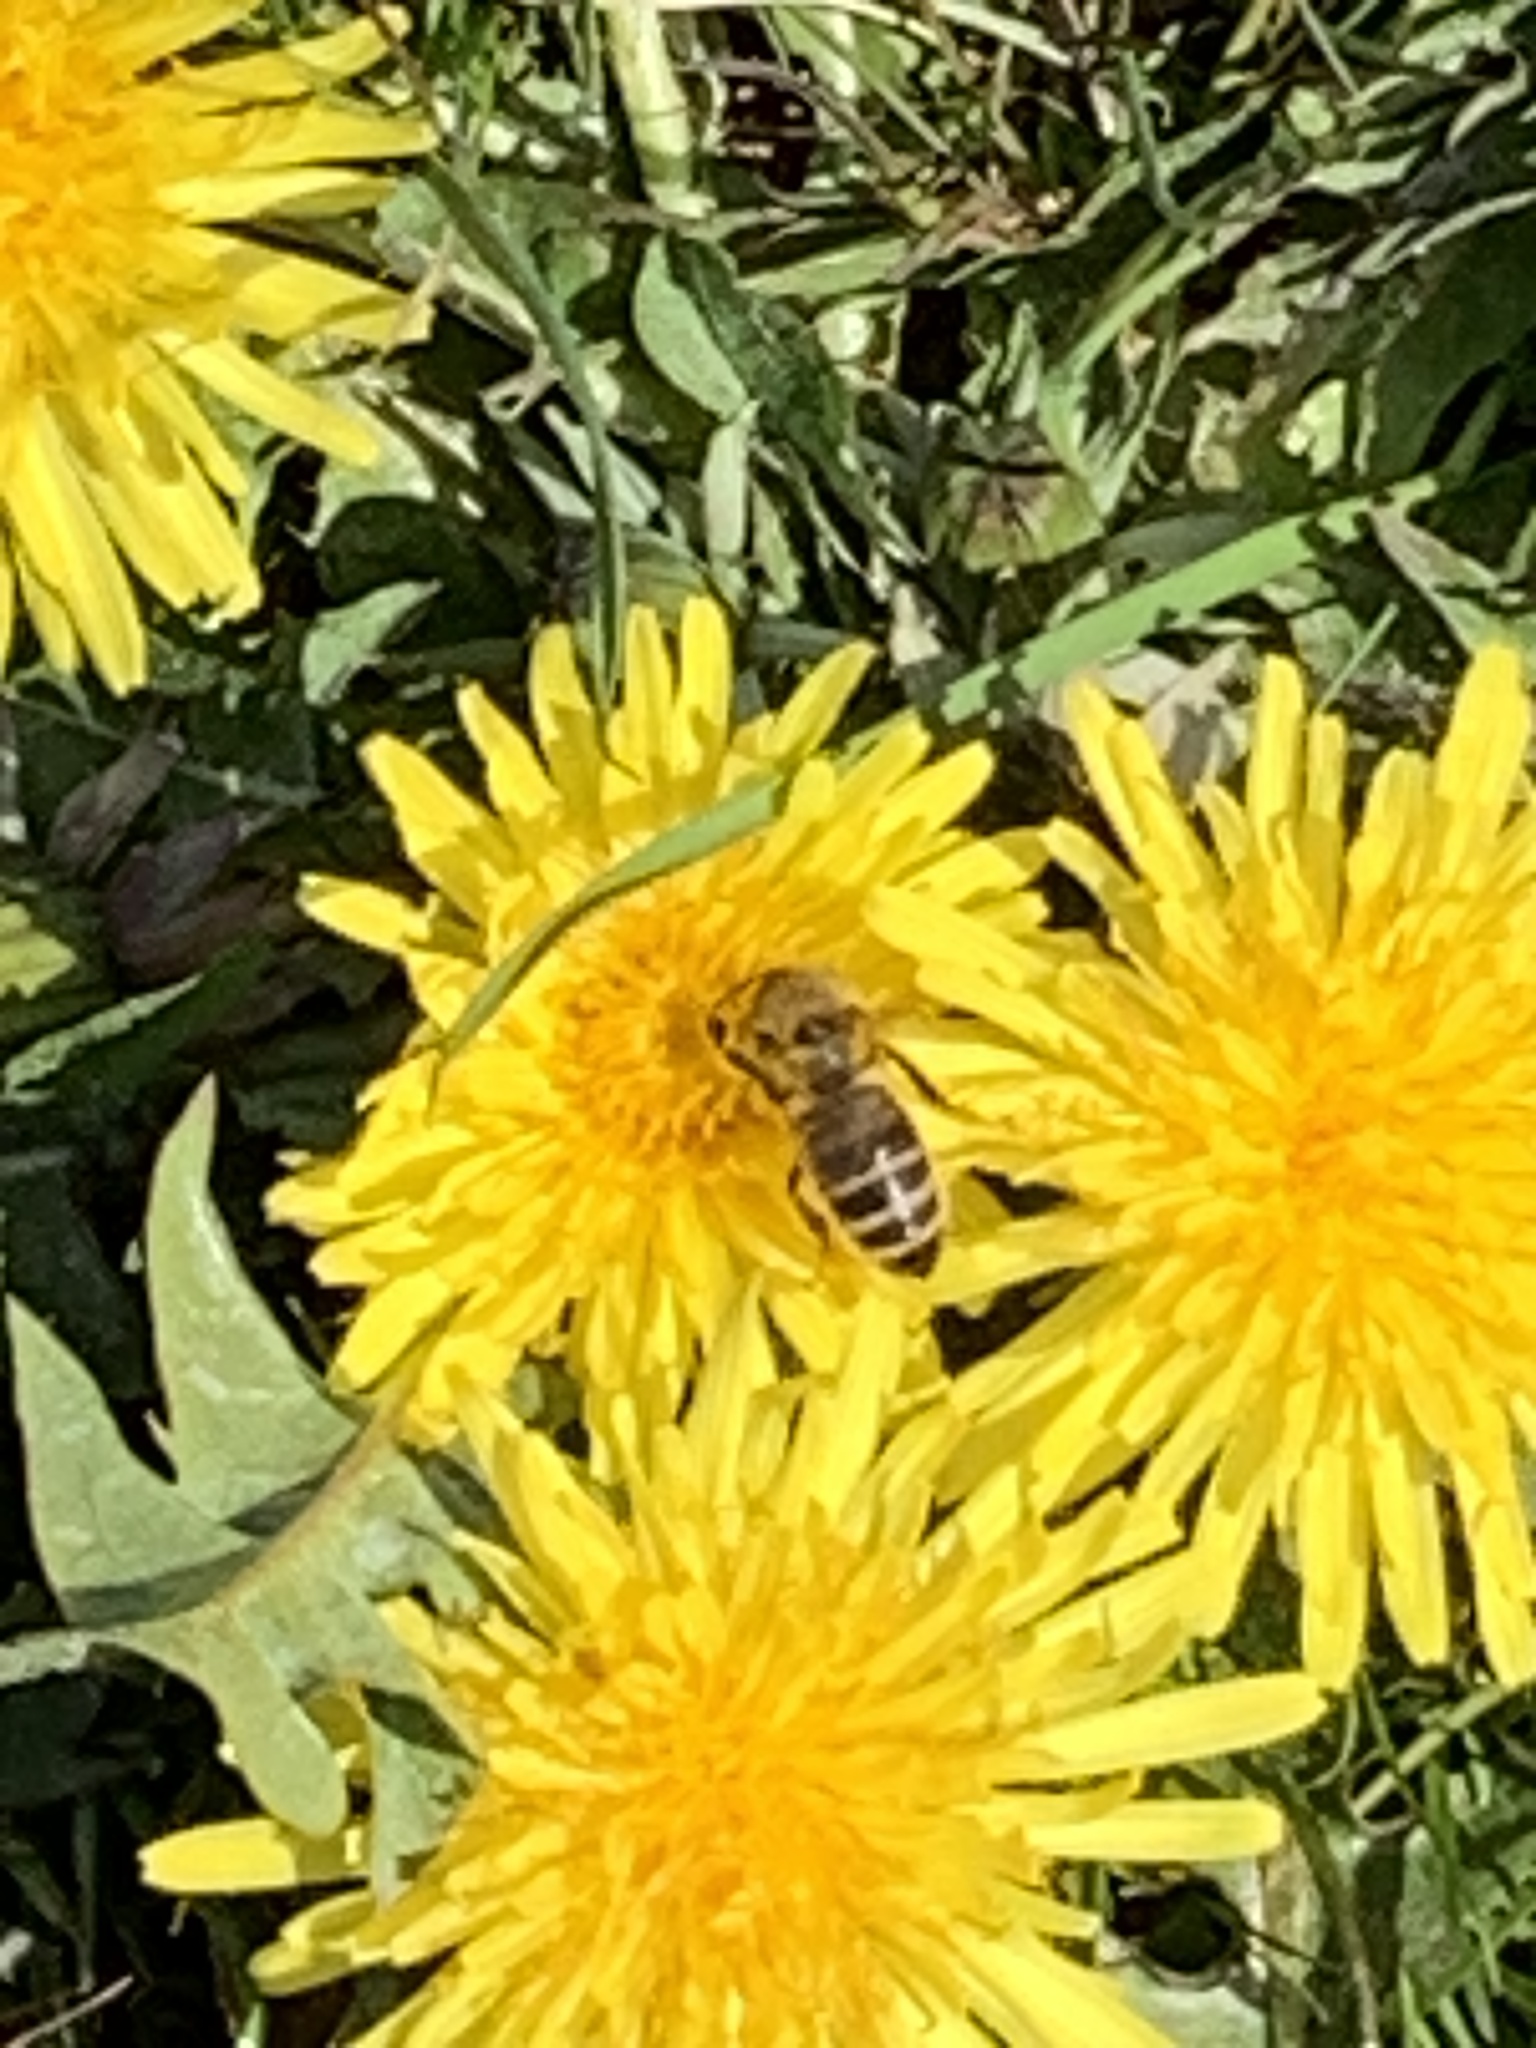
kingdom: Animalia
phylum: Arthropoda
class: Insecta
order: Hymenoptera
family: Apidae
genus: Apis
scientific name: Apis mellifera
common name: Honey bee
